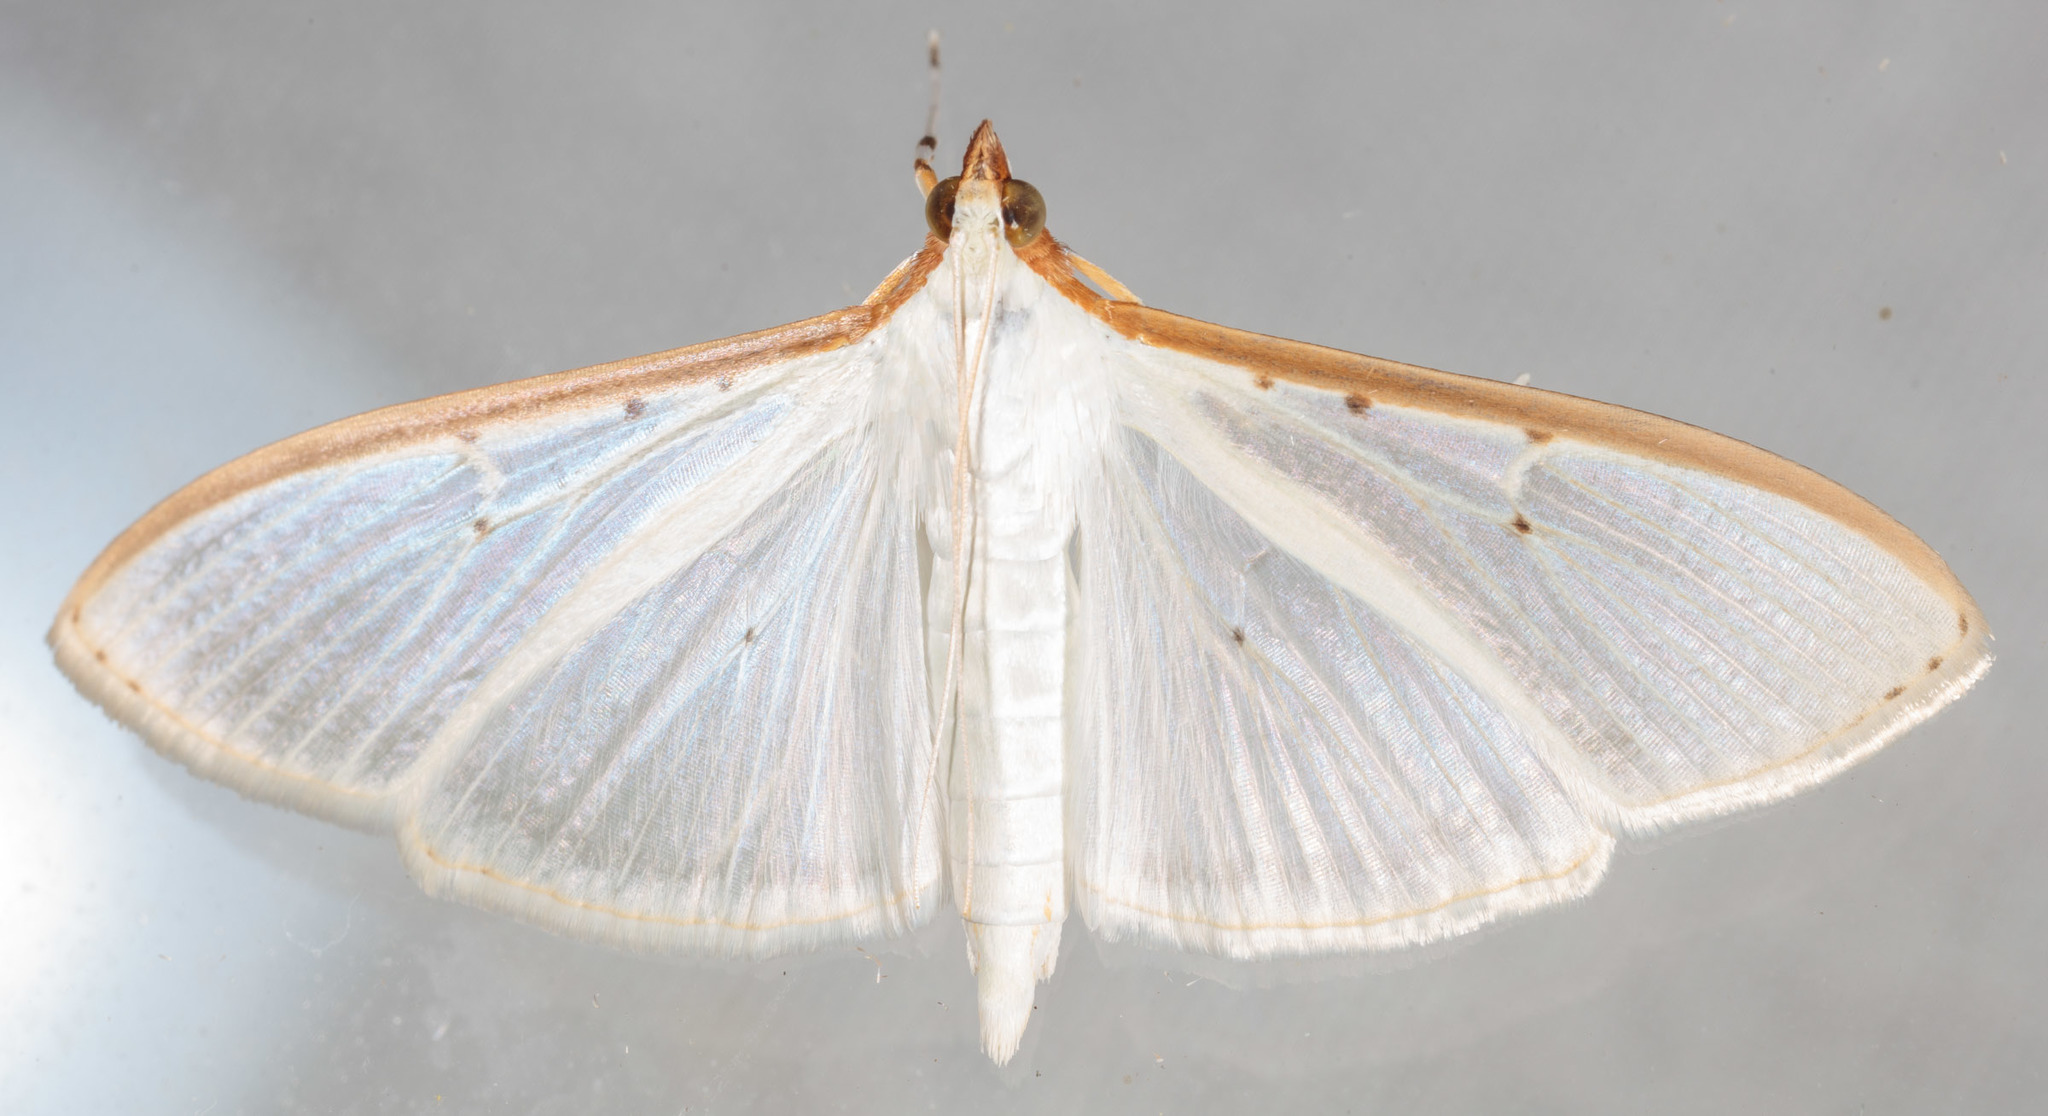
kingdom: Animalia
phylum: Arthropoda
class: Insecta
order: Lepidoptera
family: Crambidae
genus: Palpita
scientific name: Palpita quadristigmalis
